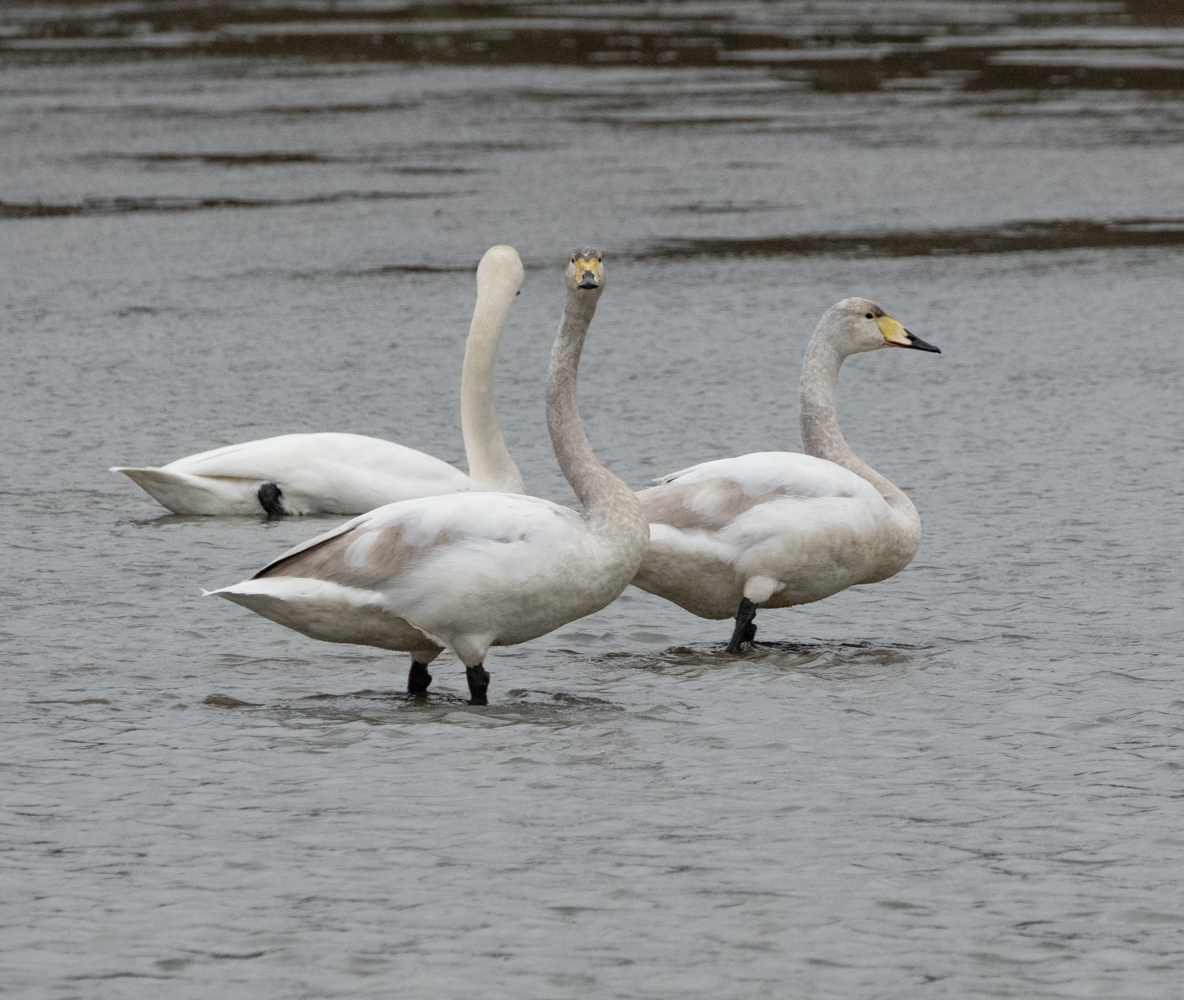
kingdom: Animalia
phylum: Chordata
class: Aves
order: Anseriformes
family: Anatidae
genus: Cygnus
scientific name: Cygnus cygnus
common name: Whooper swan
